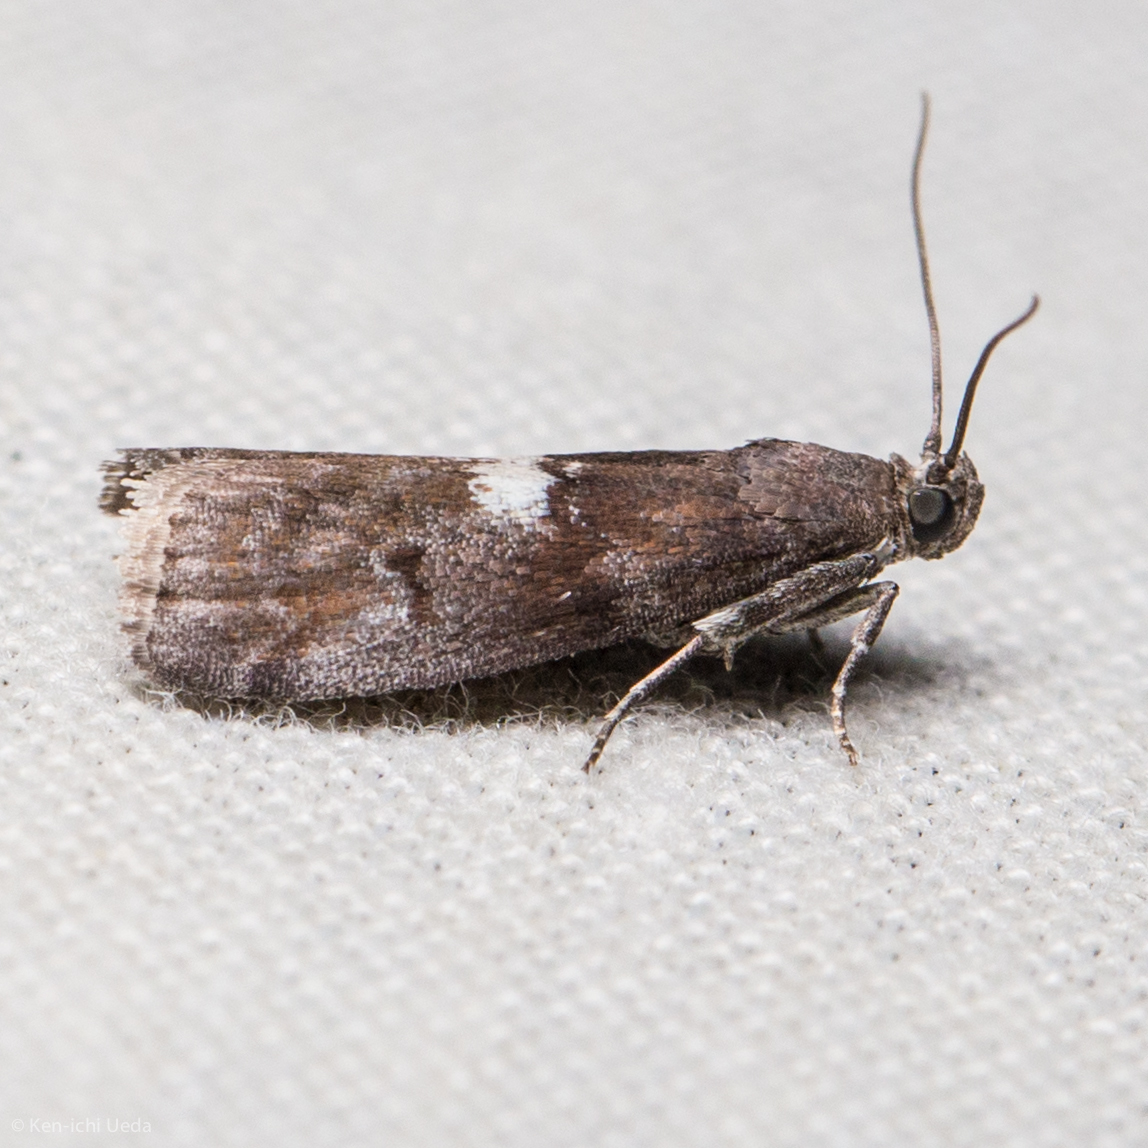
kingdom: Animalia
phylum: Arthropoda
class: Insecta
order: Lepidoptera
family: Pyralidae
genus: Salebriaria
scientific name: Salebriaria engeli
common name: Engel's salebriaria moth
